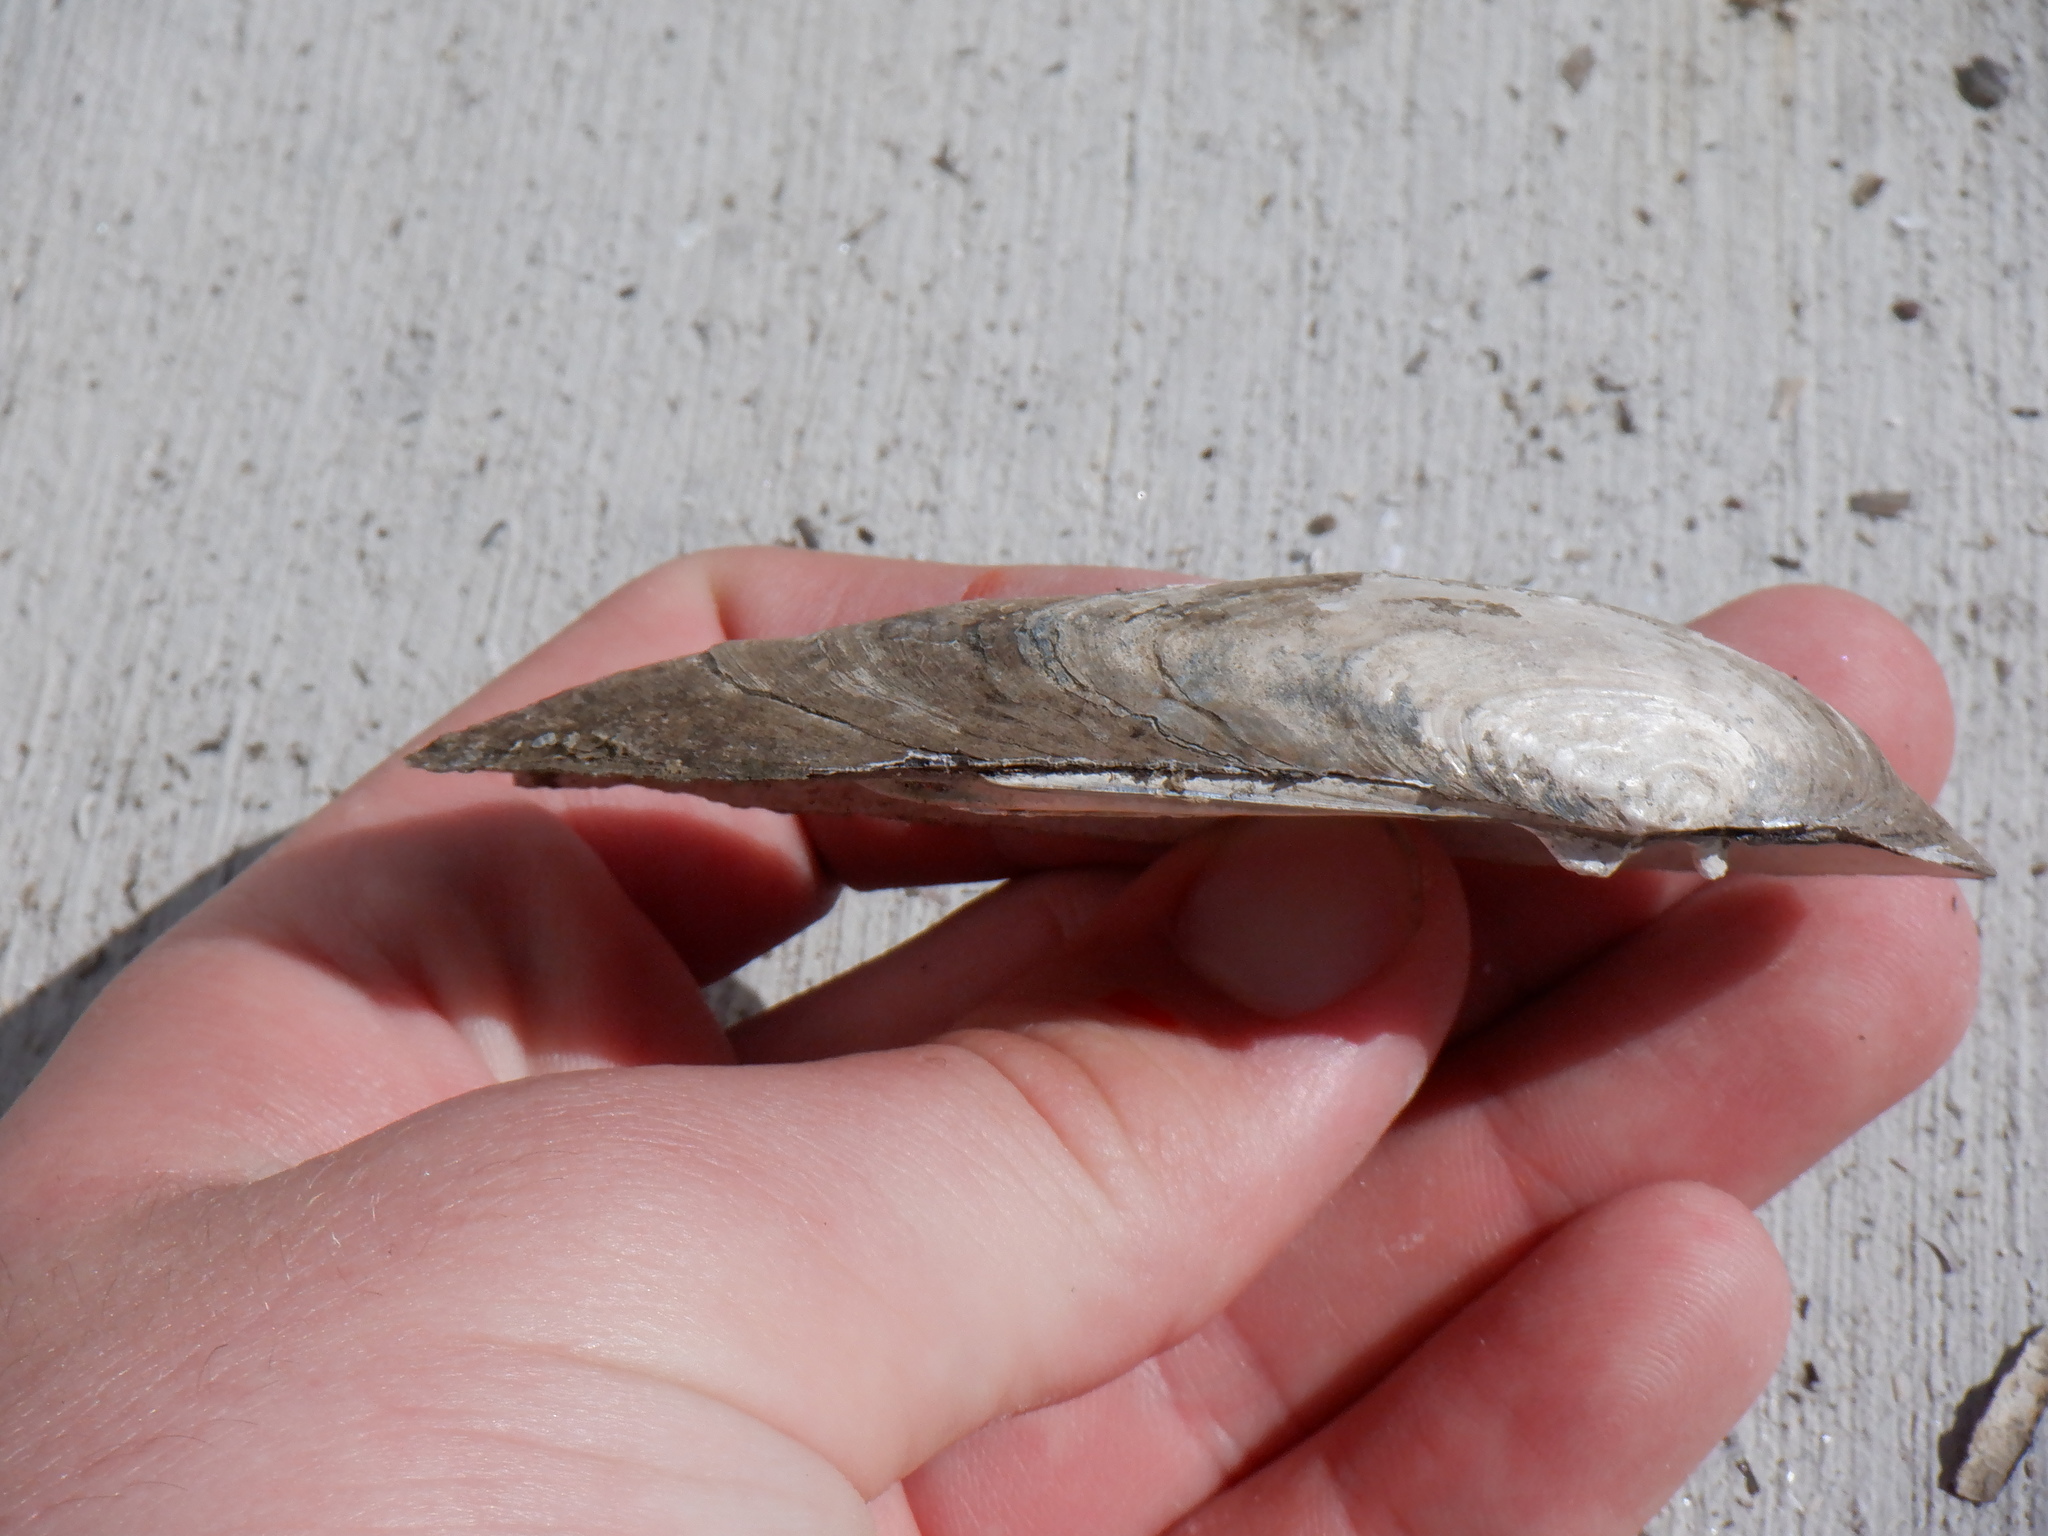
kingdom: Animalia
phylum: Mollusca
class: Bivalvia
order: Unionida
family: Unionidae
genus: Eurynia
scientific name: Eurynia dilatata
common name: Spike
